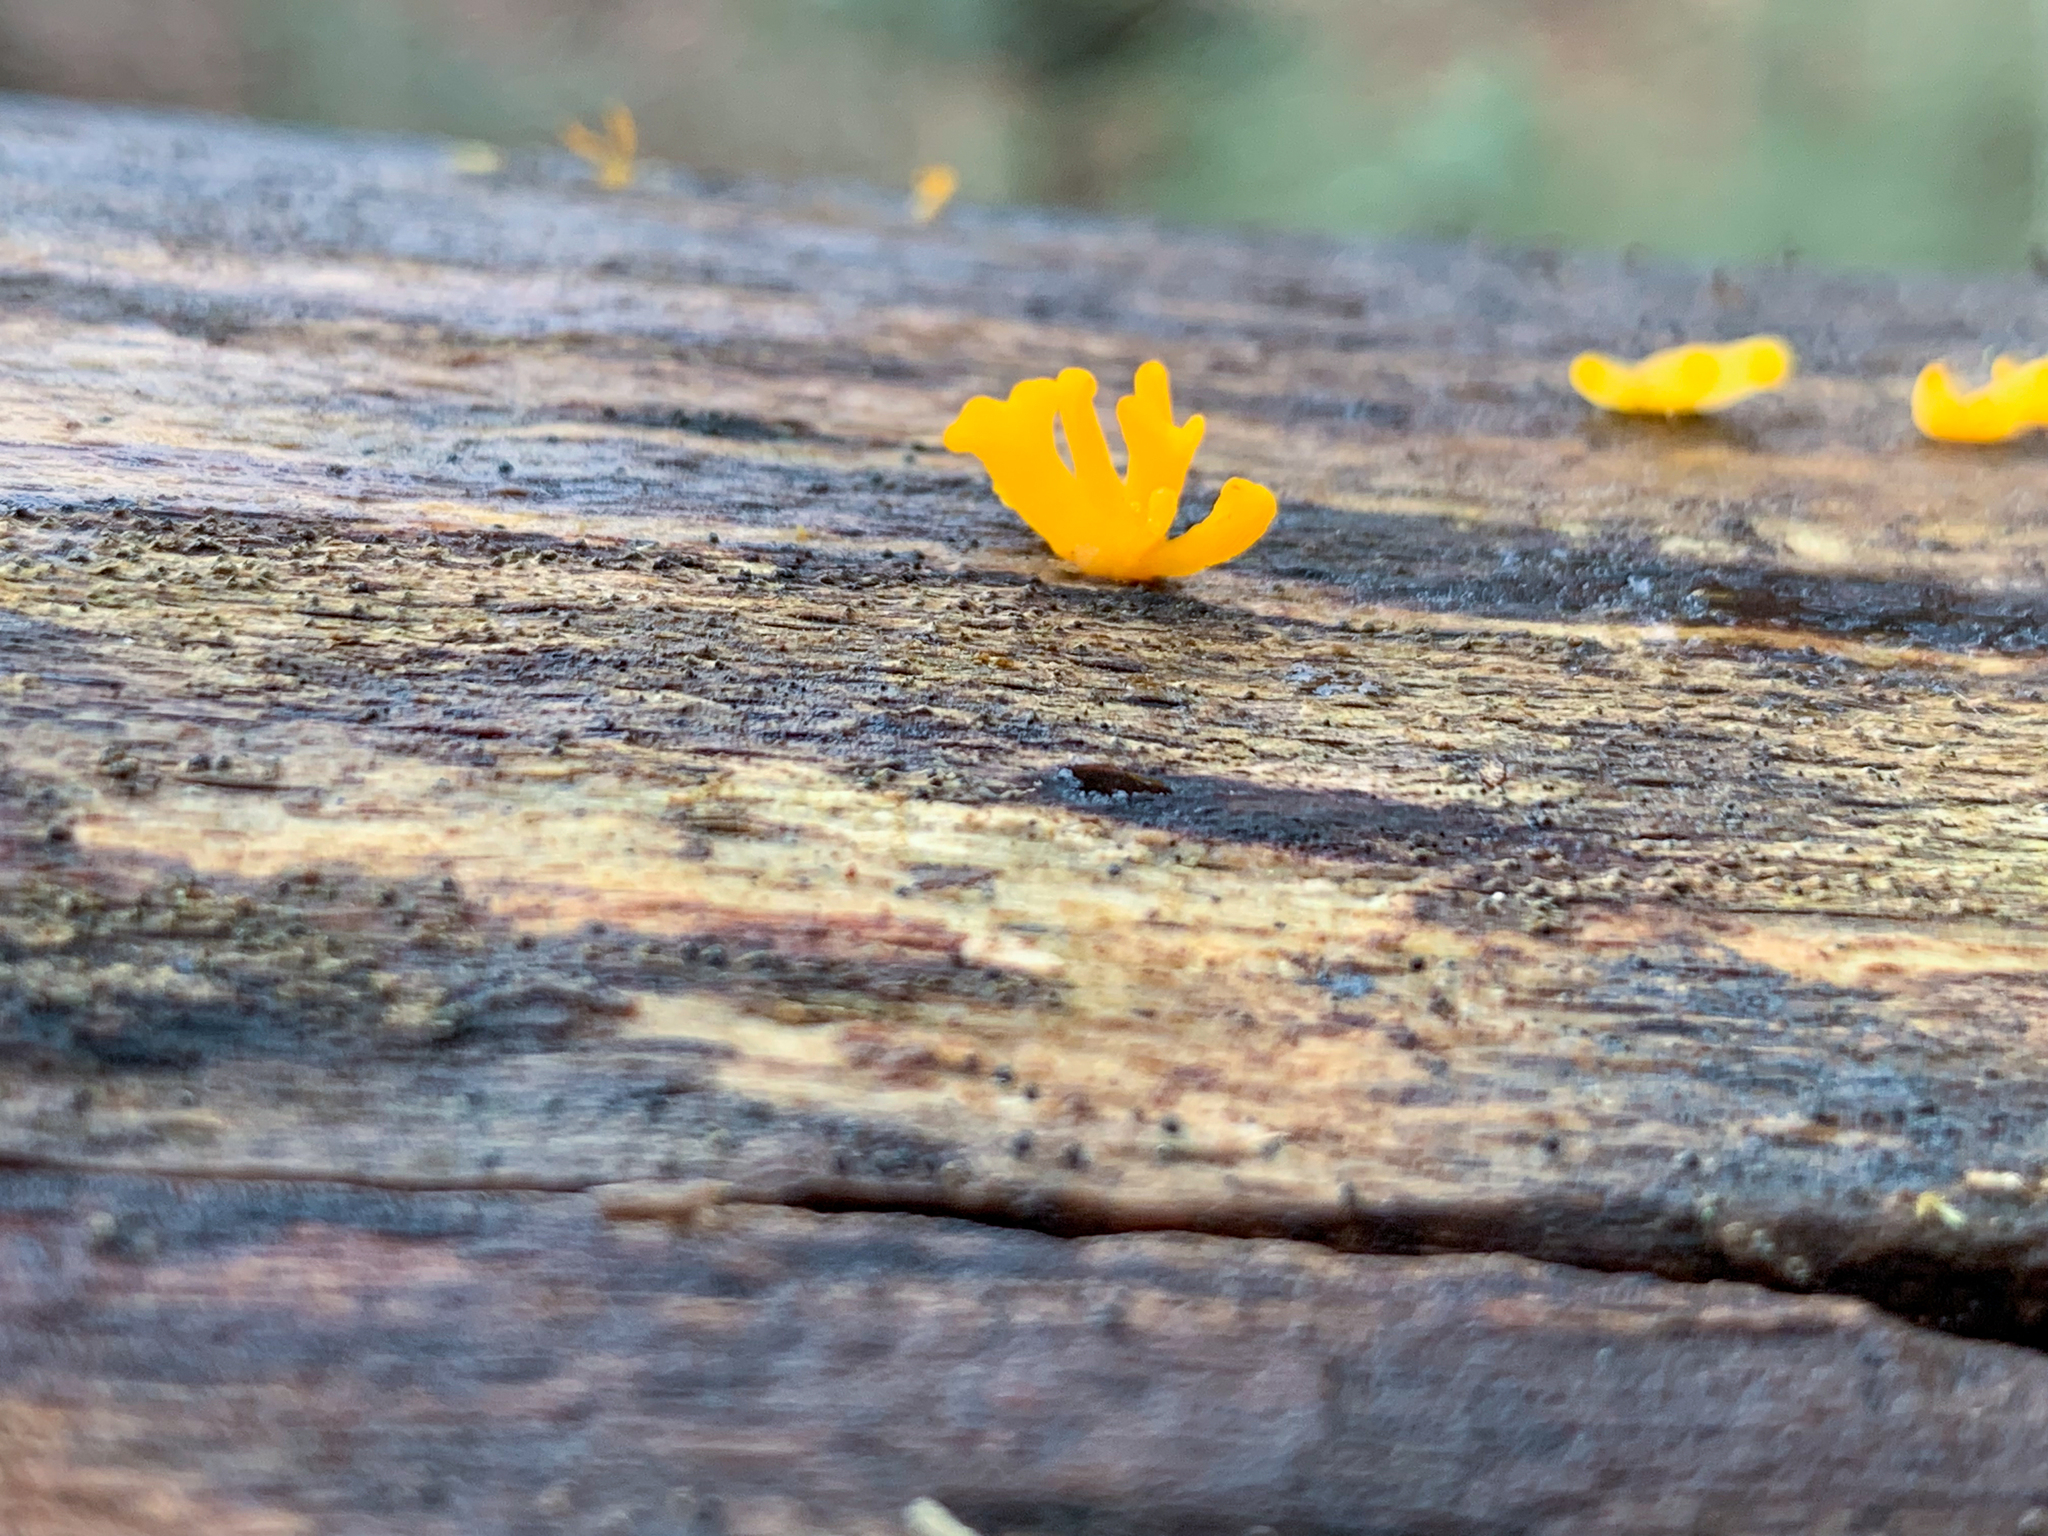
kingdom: Fungi
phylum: Basidiomycota
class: Dacrymycetes
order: Dacrymycetales
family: Dacrymycetaceae
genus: Dacrymyces
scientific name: Dacrymyces spathularius
